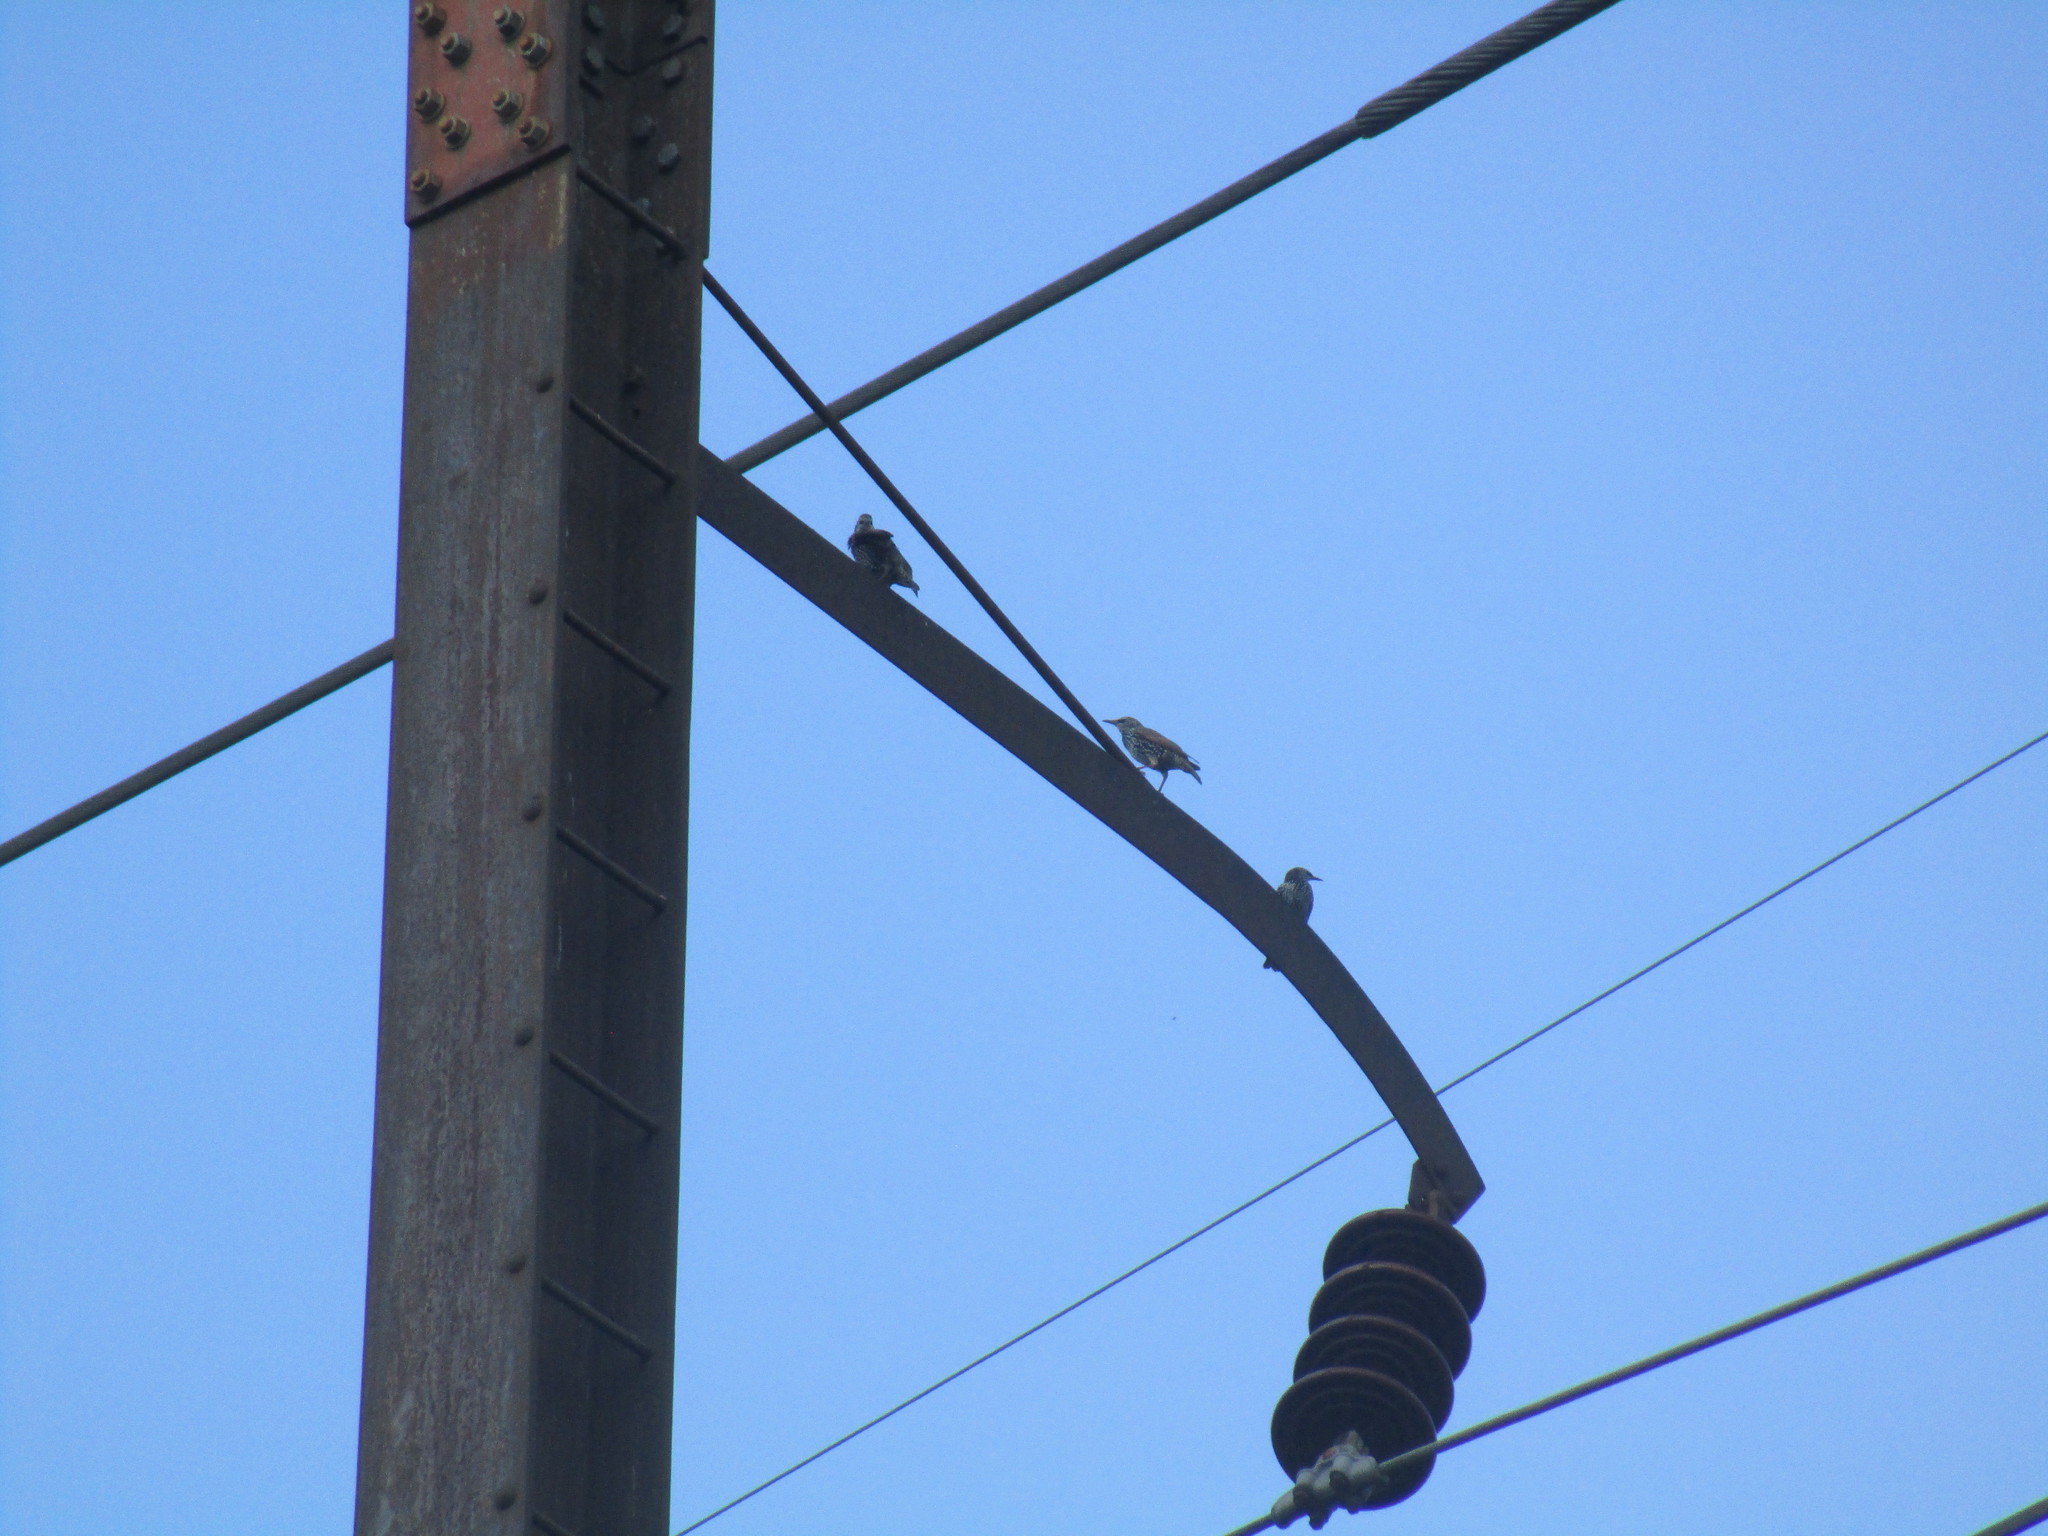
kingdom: Animalia
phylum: Chordata
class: Aves
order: Passeriformes
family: Sturnidae
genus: Sturnus
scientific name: Sturnus vulgaris
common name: Common starling
